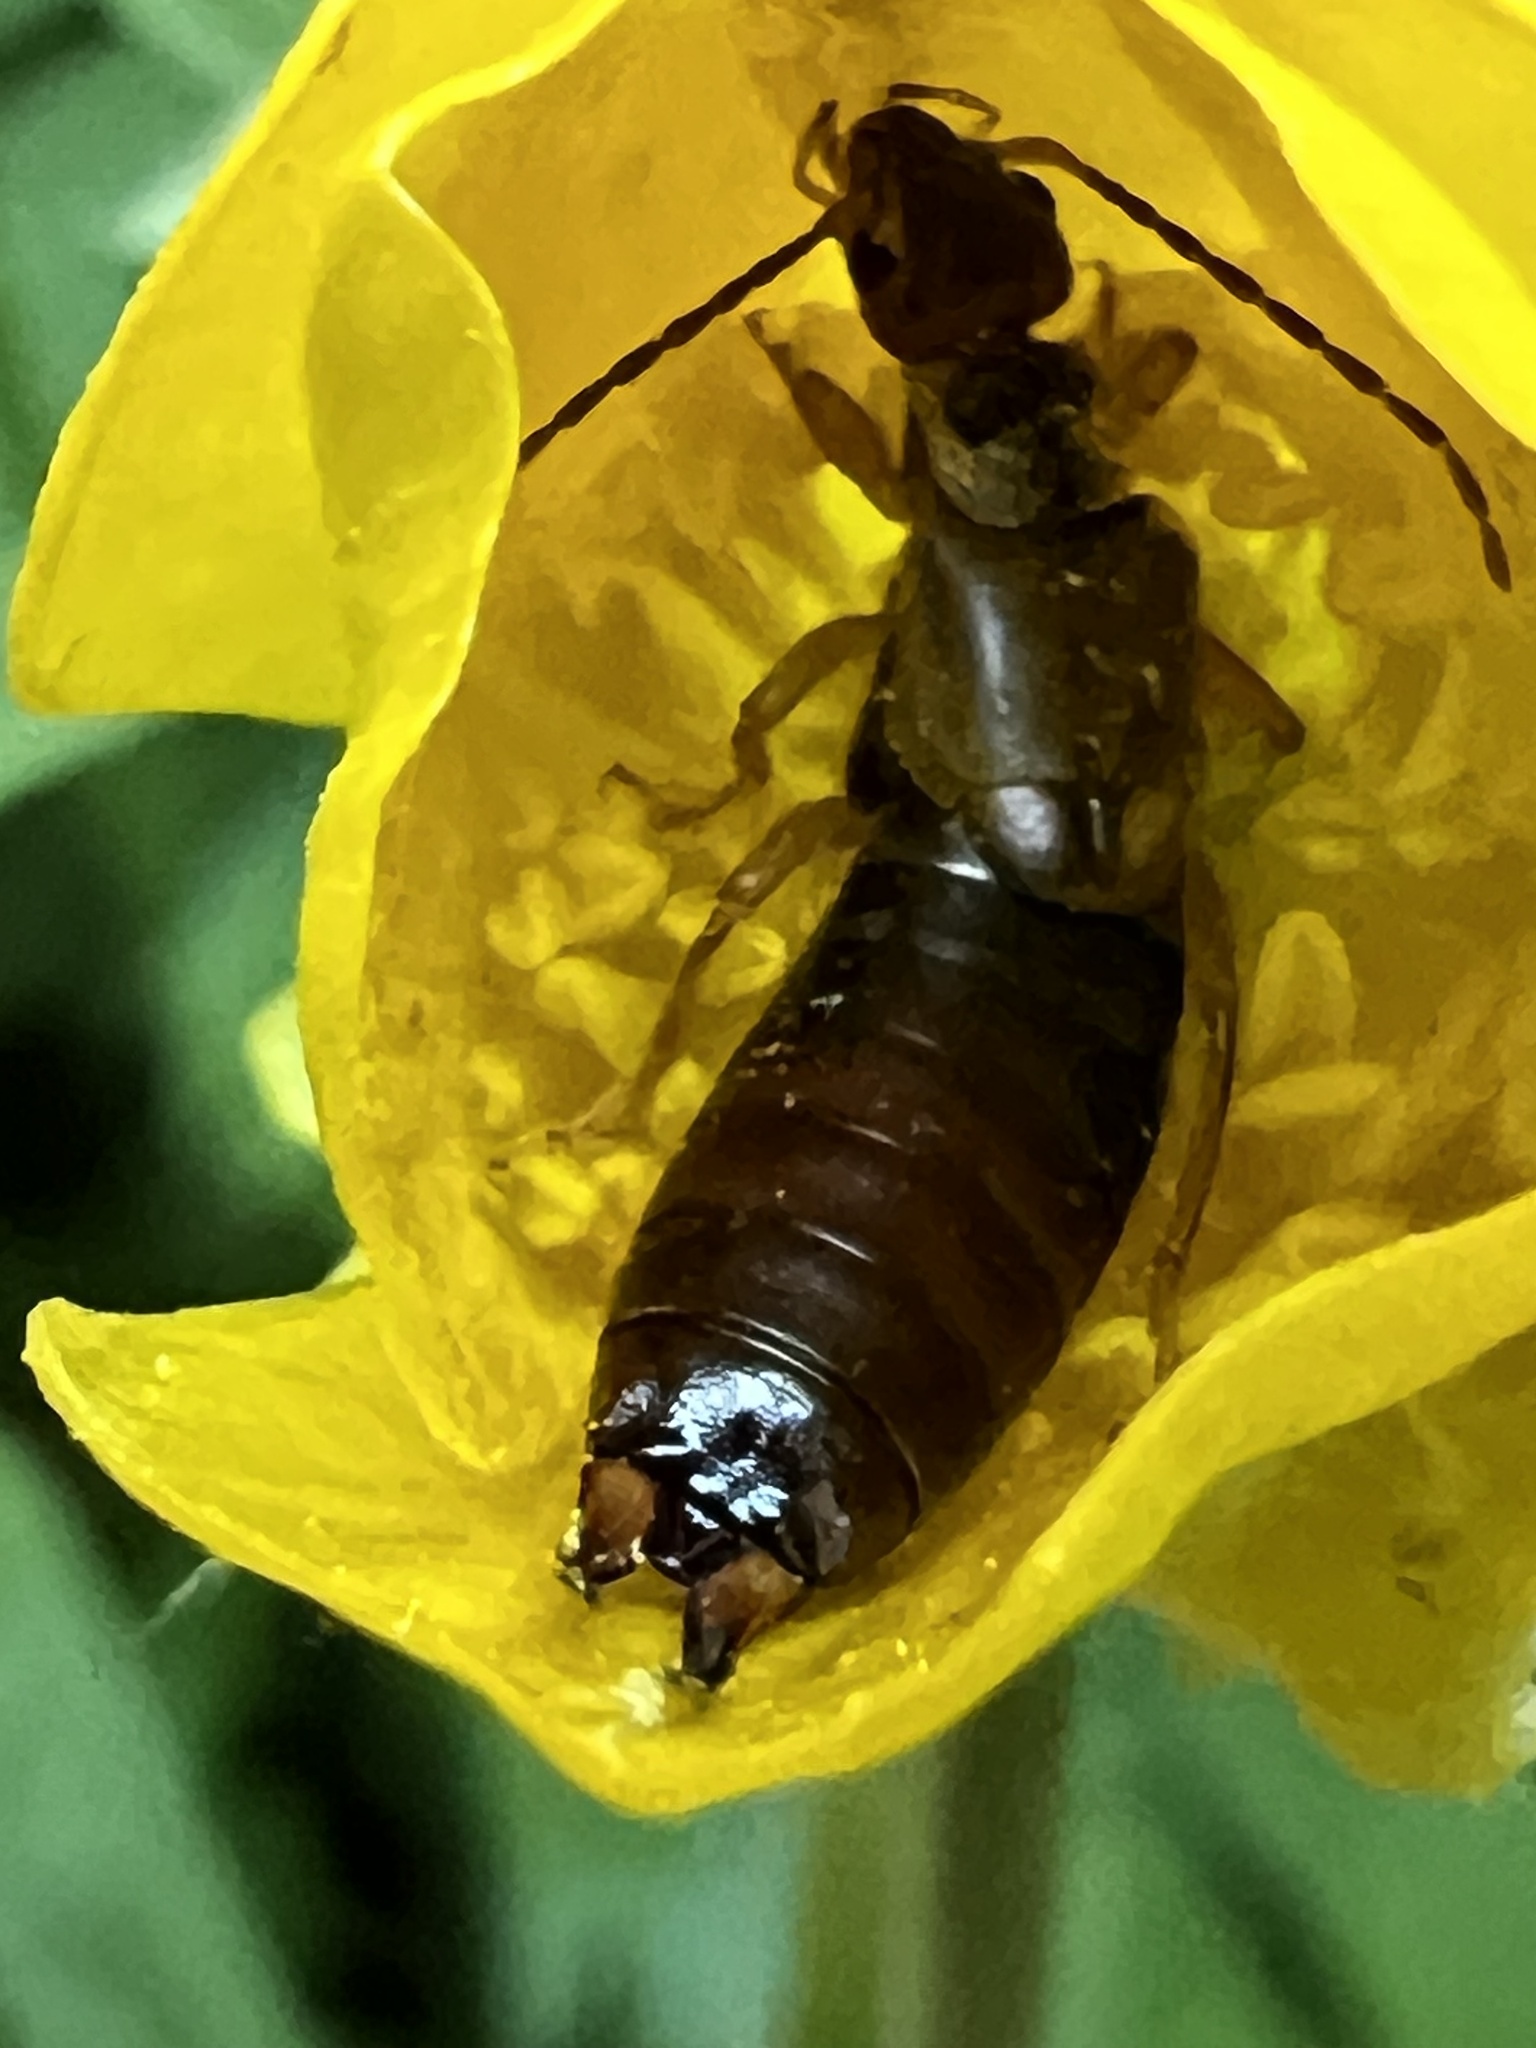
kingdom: Animalia
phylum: Arthropoda
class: Insecta
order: Dermaptera
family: Forficulidae
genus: Forficula
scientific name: Forficula
